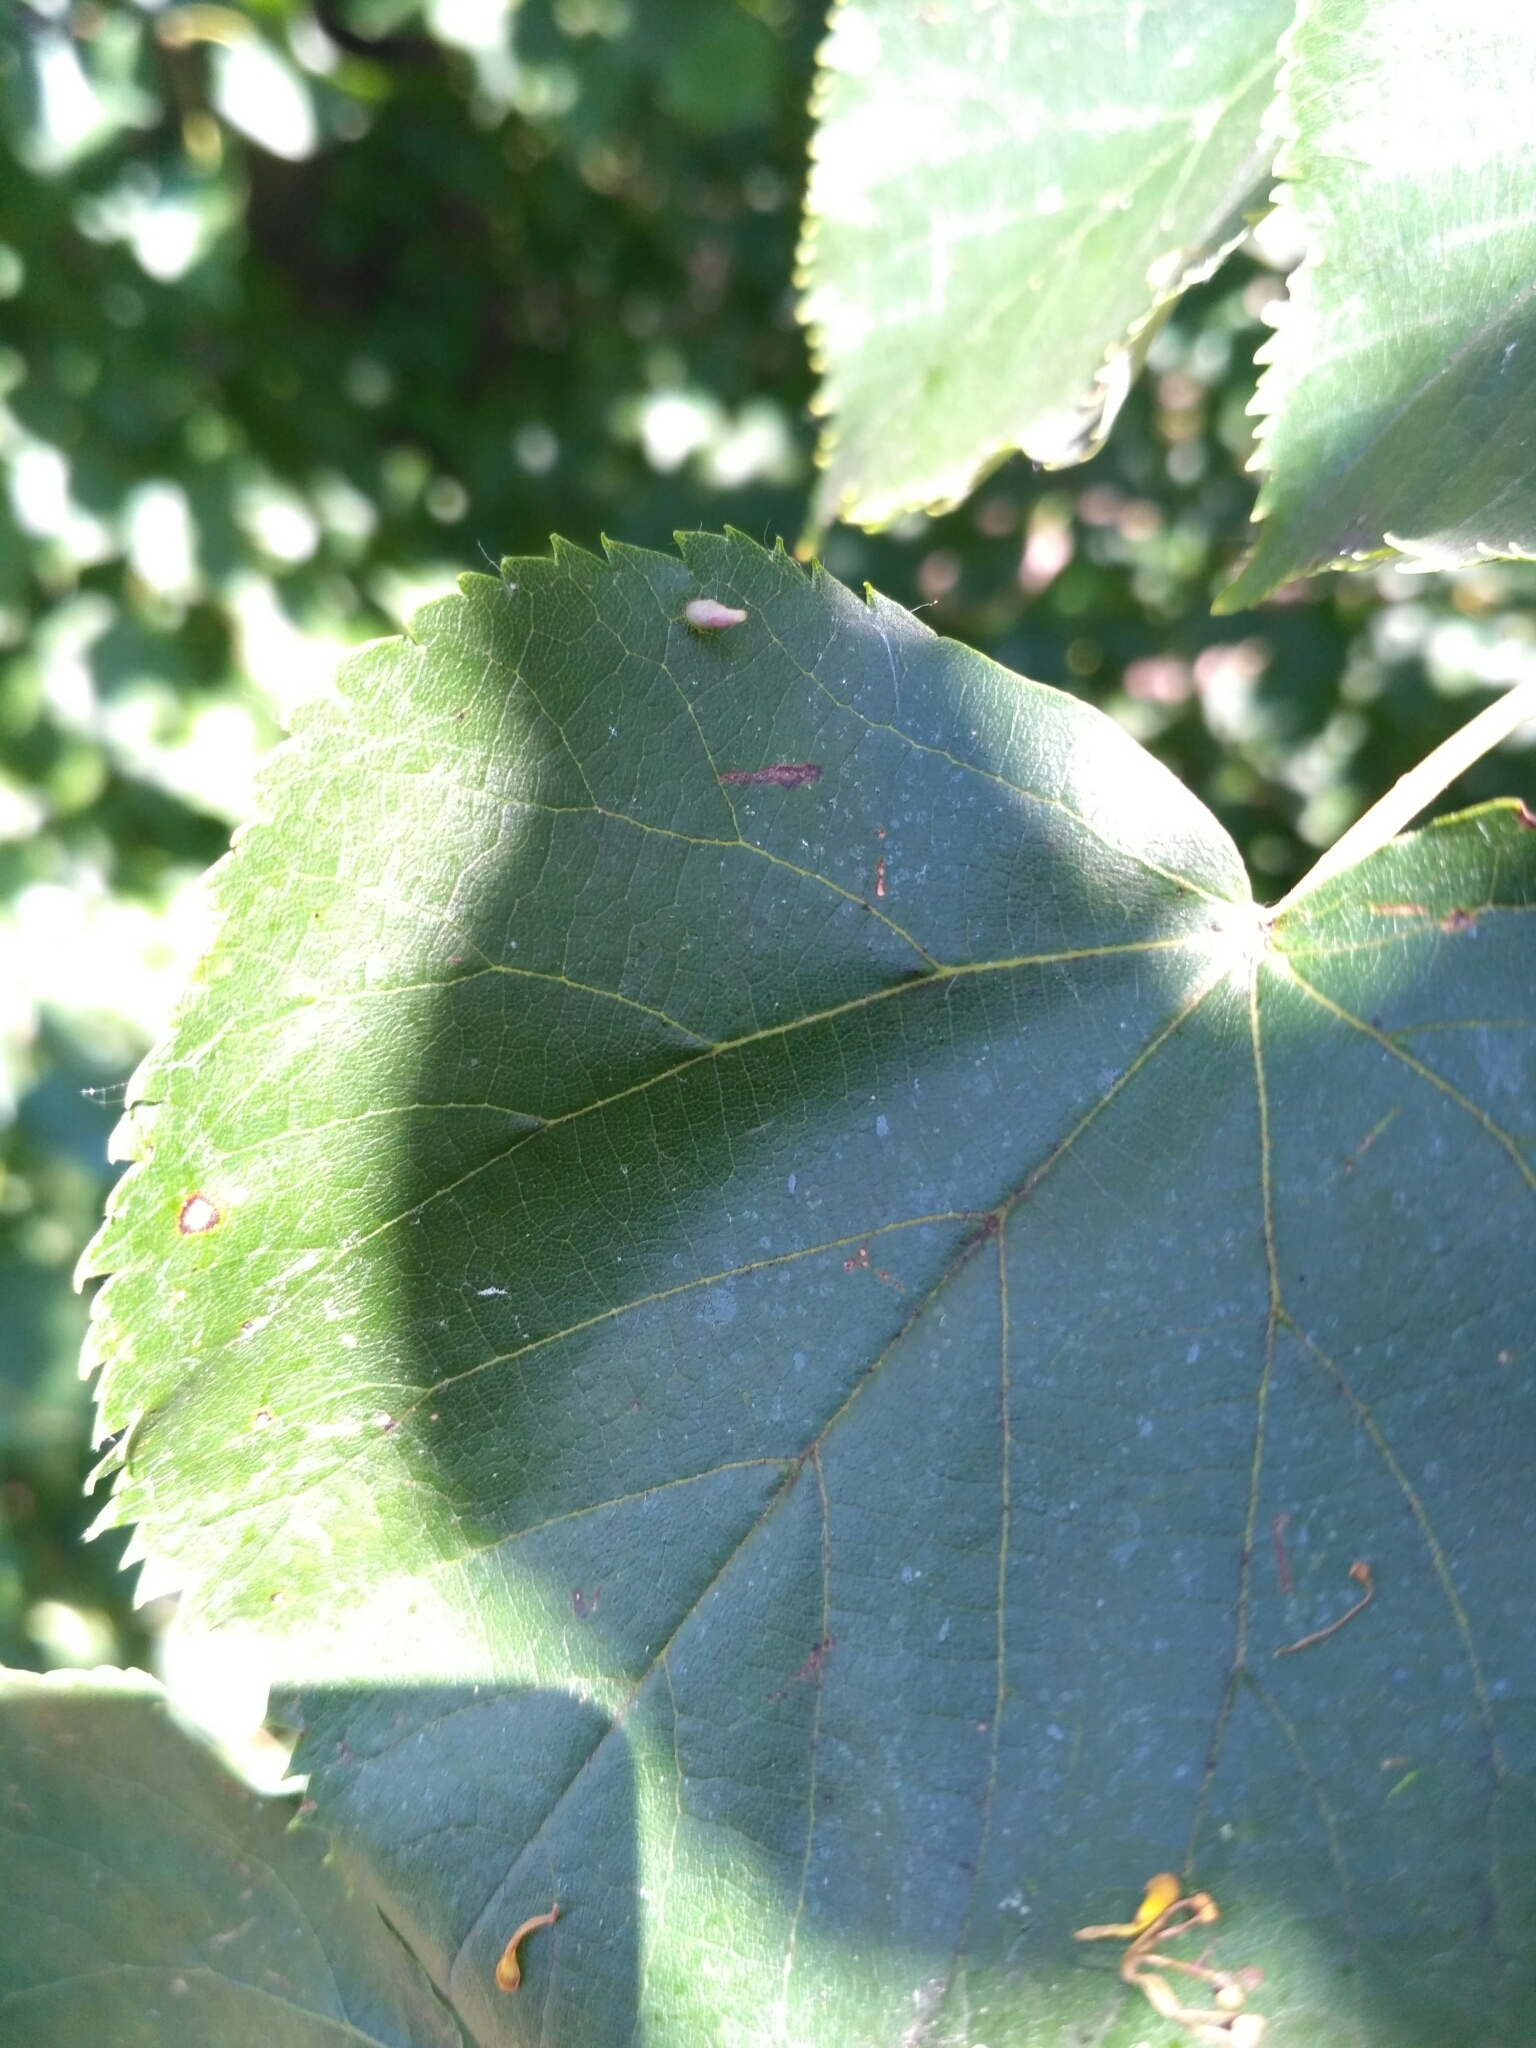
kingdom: Animalia
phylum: Arthropoda
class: Arachnida
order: Trombidiformes
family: Eriophyidae
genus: Eriophyes
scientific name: Eriophyes tiliae
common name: Red nail gall mite
